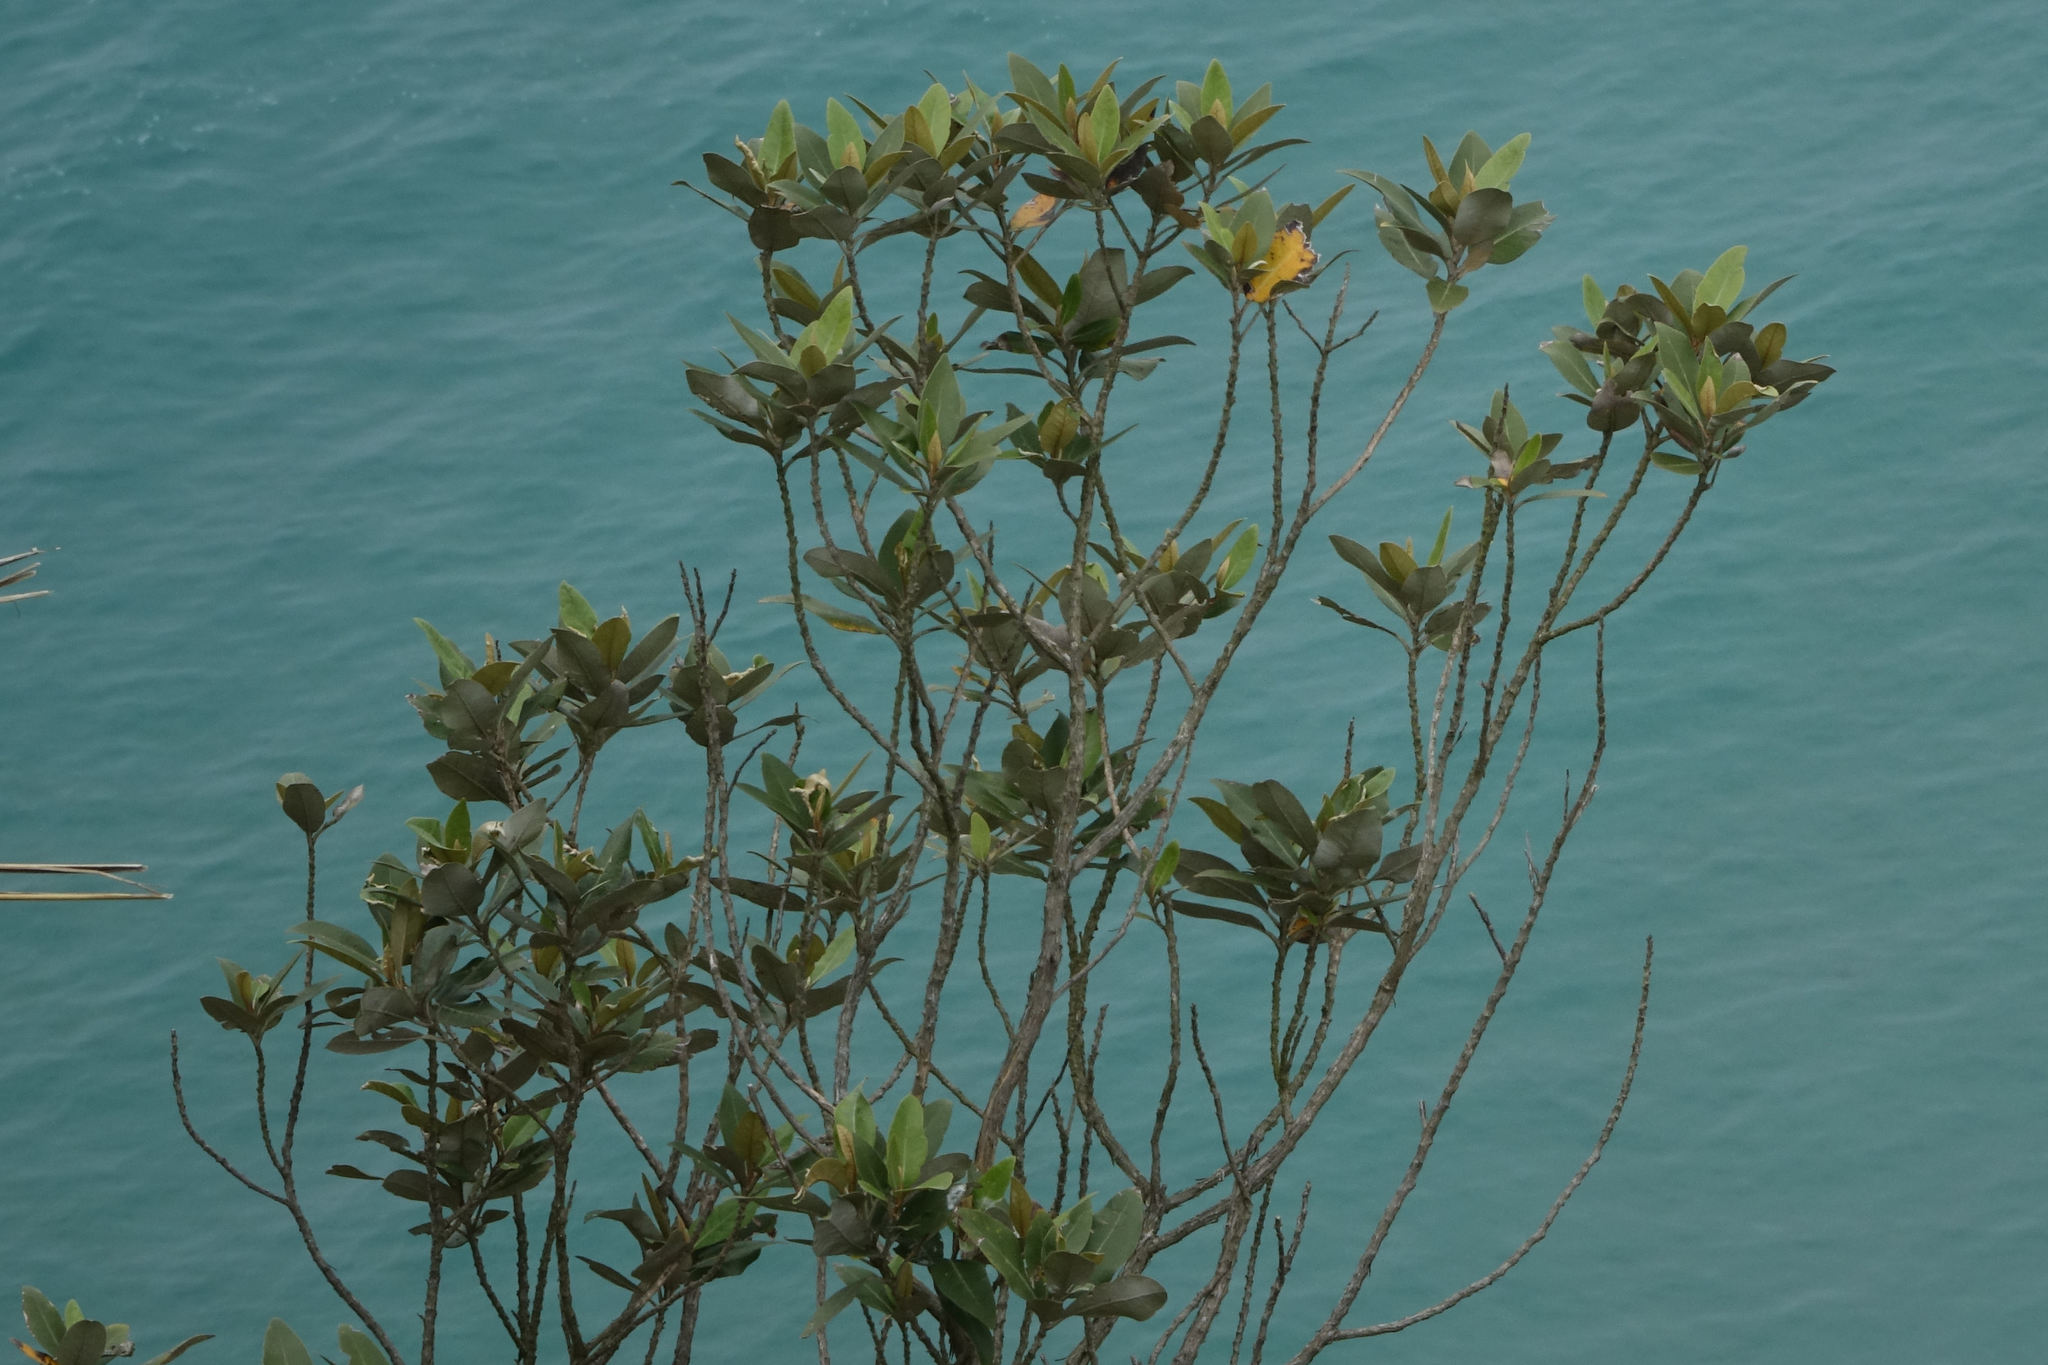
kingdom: Plantae
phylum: Tracheophyta
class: Magnoliopsida
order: Asterales
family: Asteraceae
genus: Olearia
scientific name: Olearia avicenniifolia
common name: Mangrove-leaf daisybush
